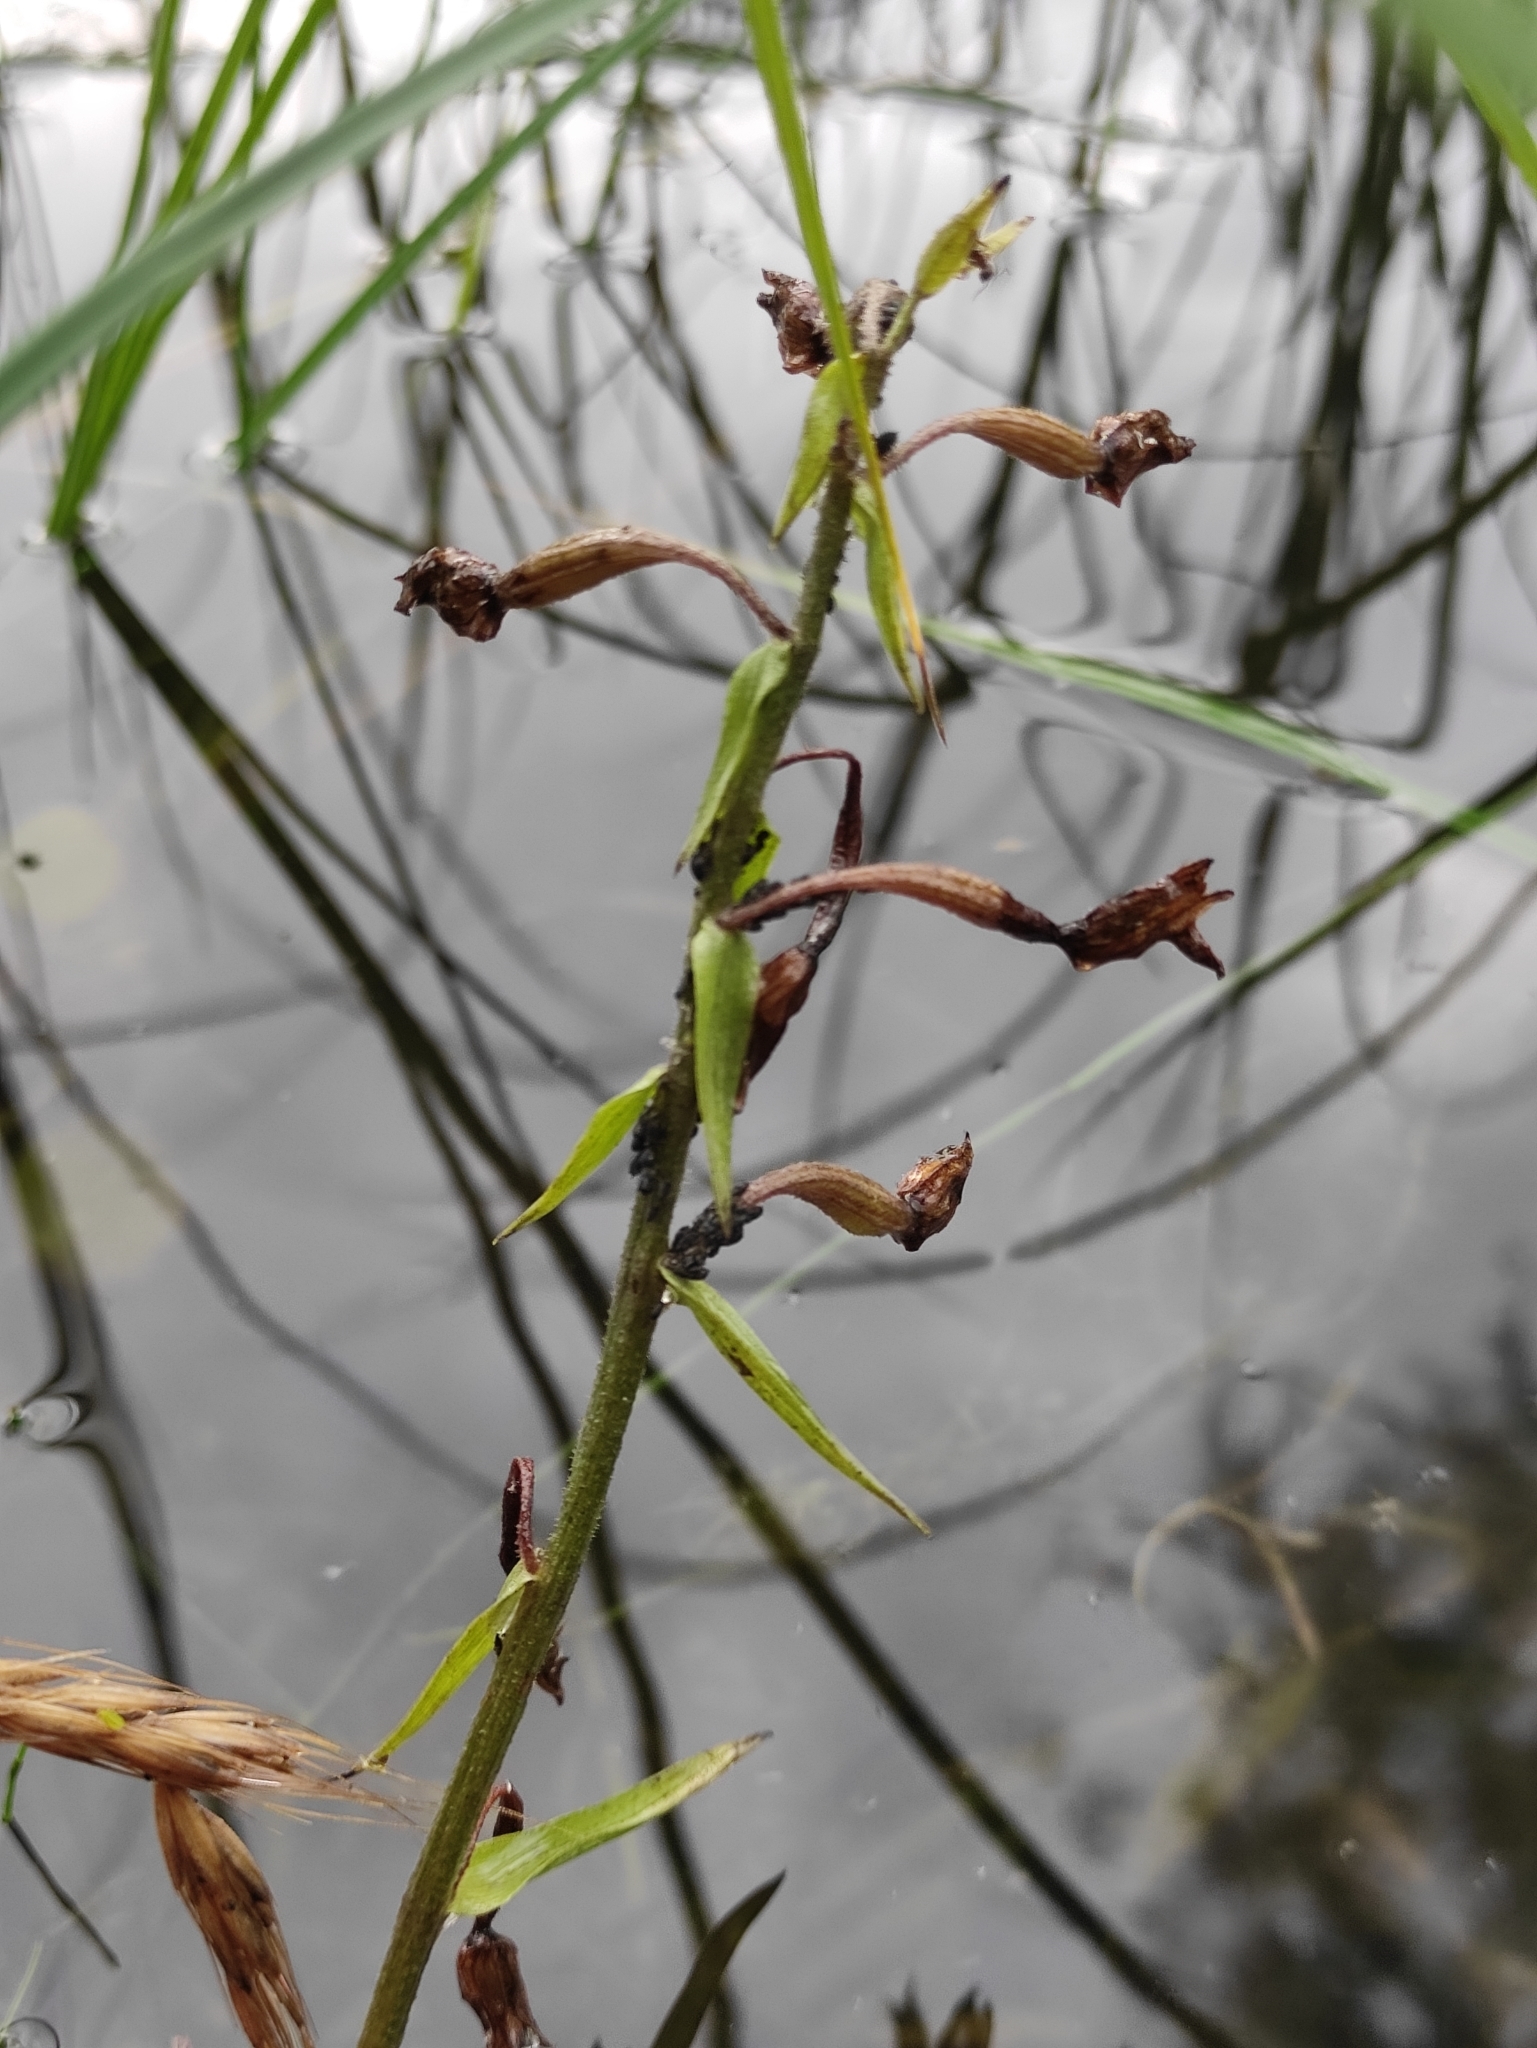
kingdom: Plantae
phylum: Tracheophyta
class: Liliopsida
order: Asparagales
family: Orchidaceae
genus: Epipactis
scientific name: Epipactis palustris
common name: Marsh helleborine
